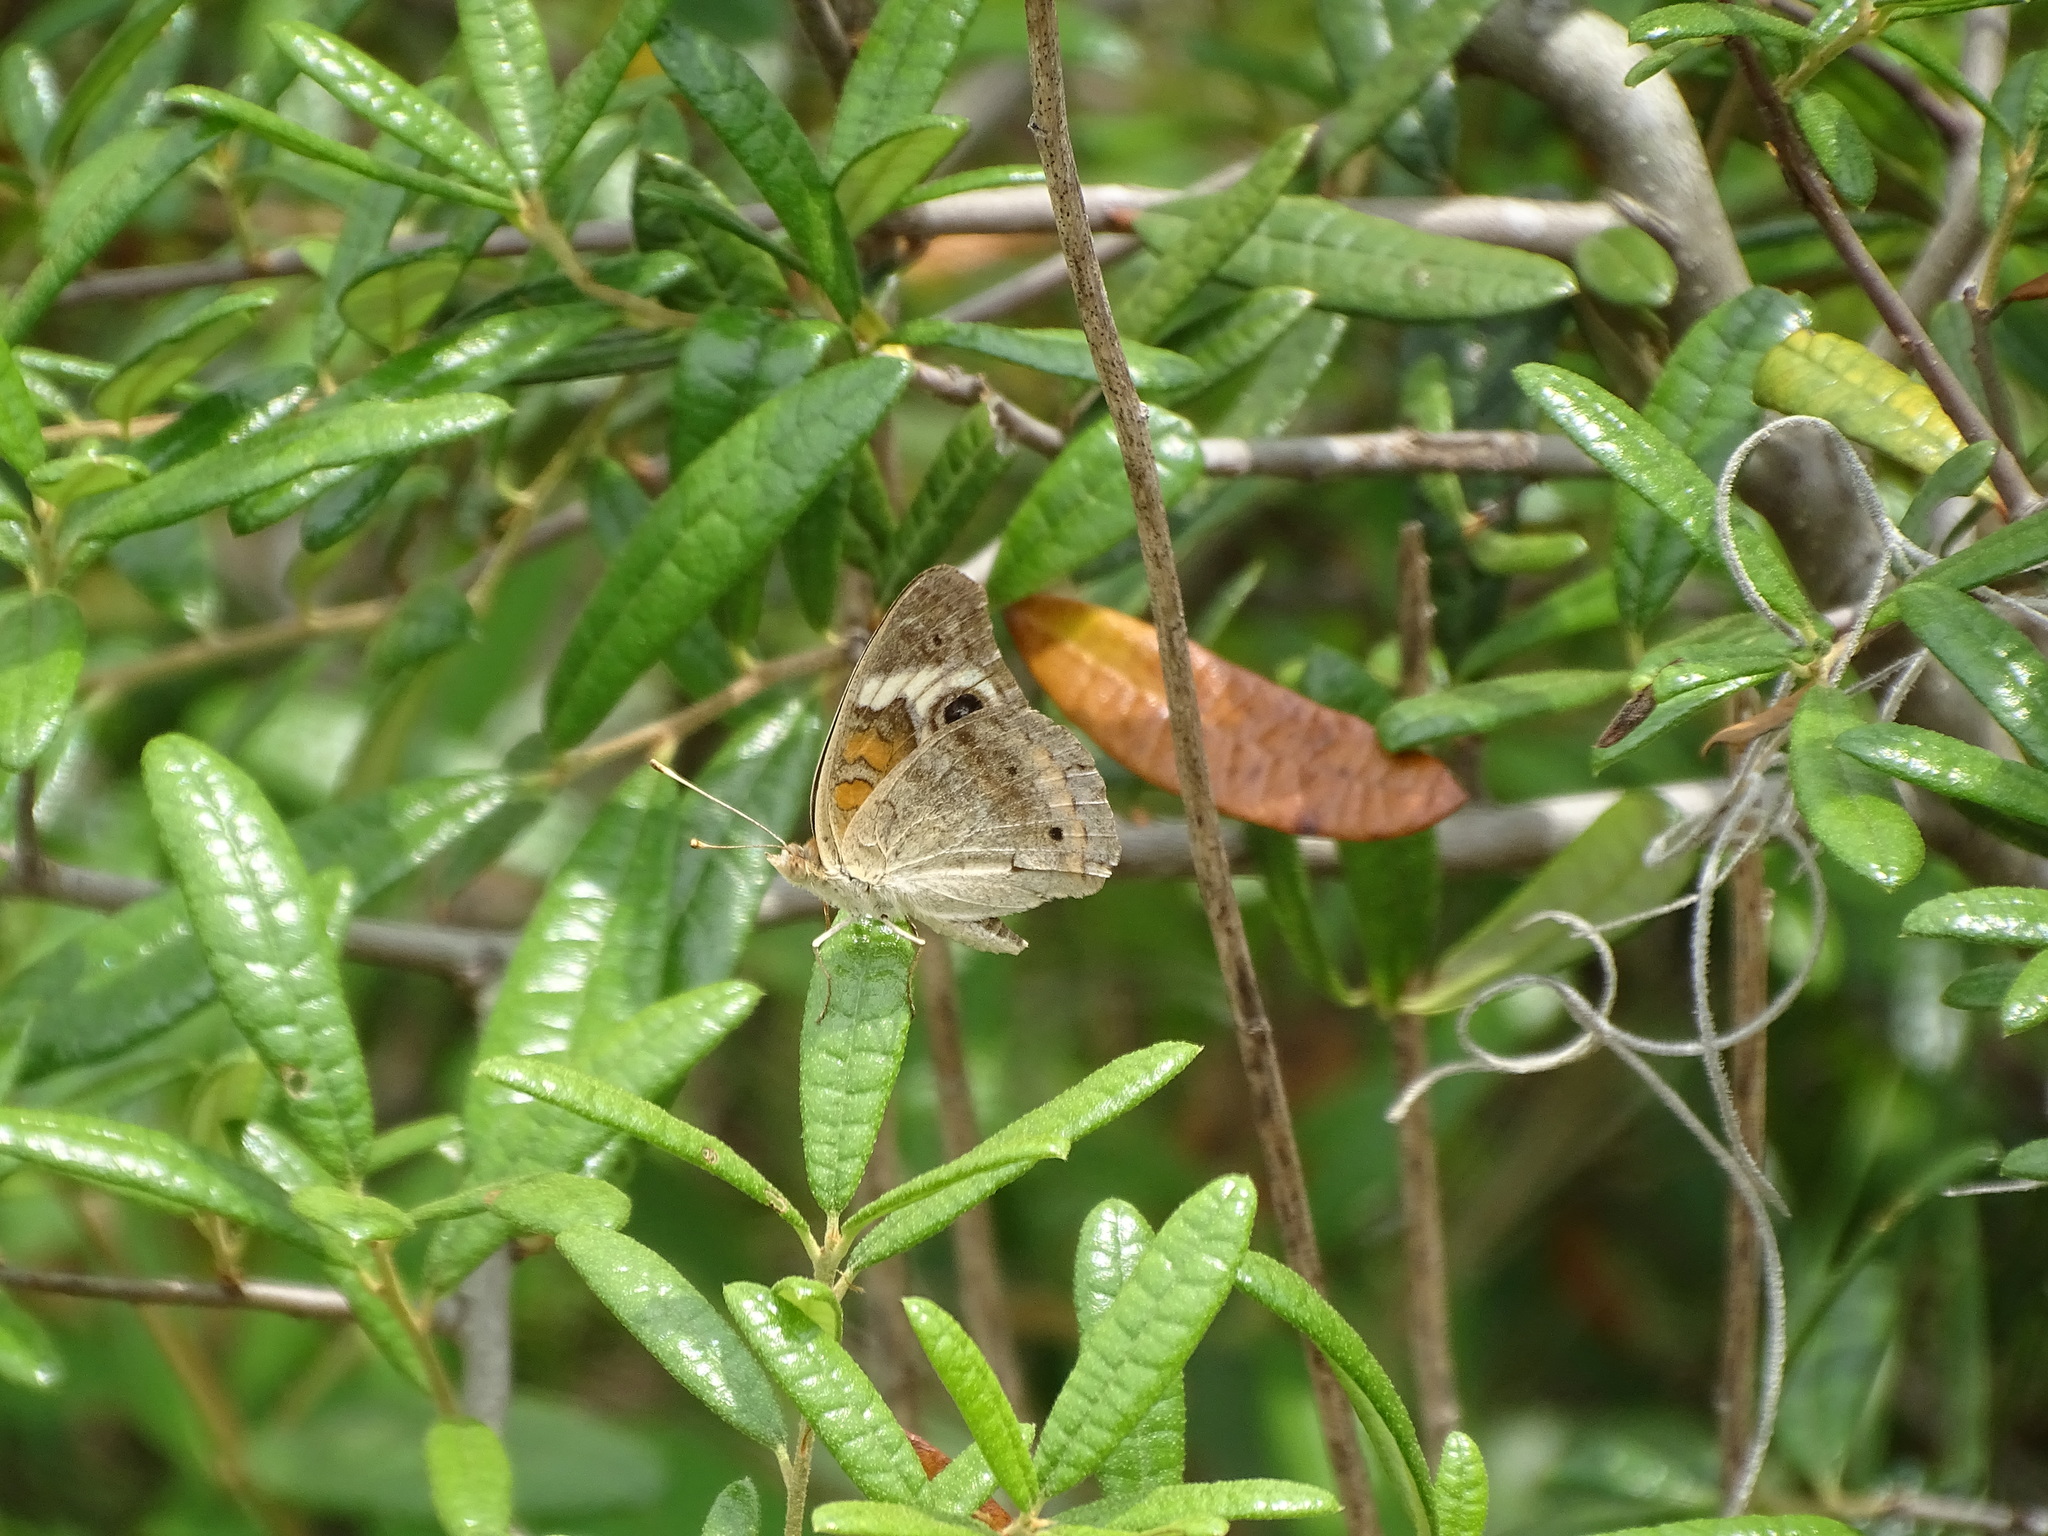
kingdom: Animalia
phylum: Arthropoda
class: Insecta
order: Lepidoptera
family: Nymphalidae
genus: Junonia
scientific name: Junonia coenia
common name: Common buckeye
